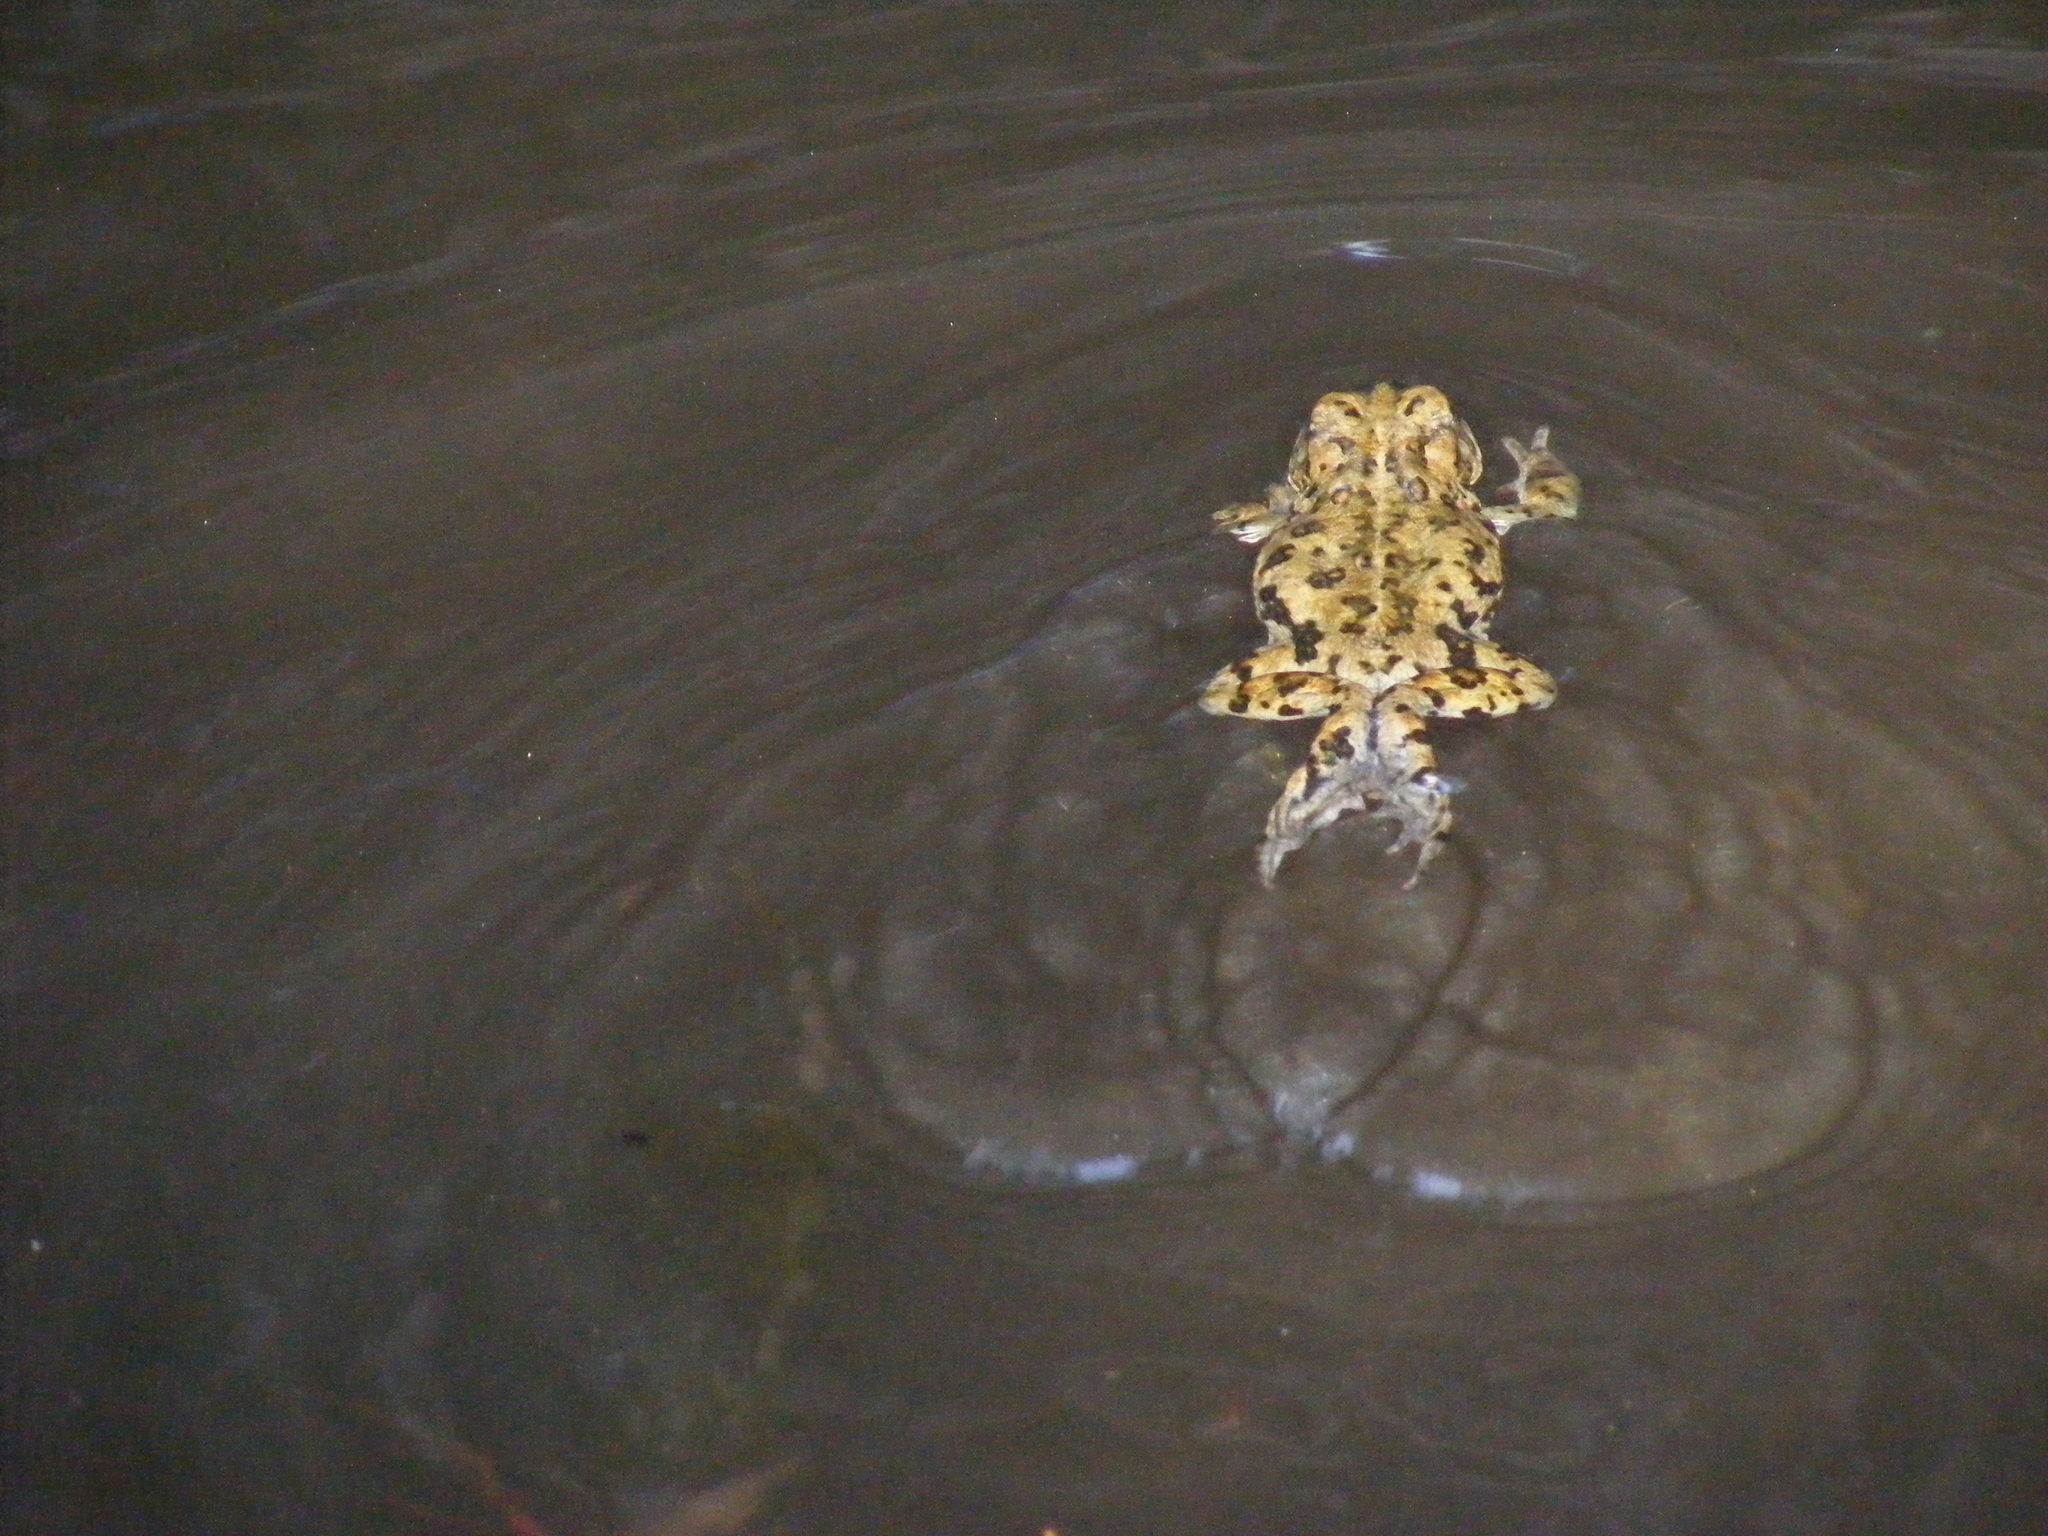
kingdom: Animalia
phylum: Chordata
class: Amphibia
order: Anura
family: Bufonidae
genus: Anaxyrus
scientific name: Anaxyrus boreas
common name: Western toad
